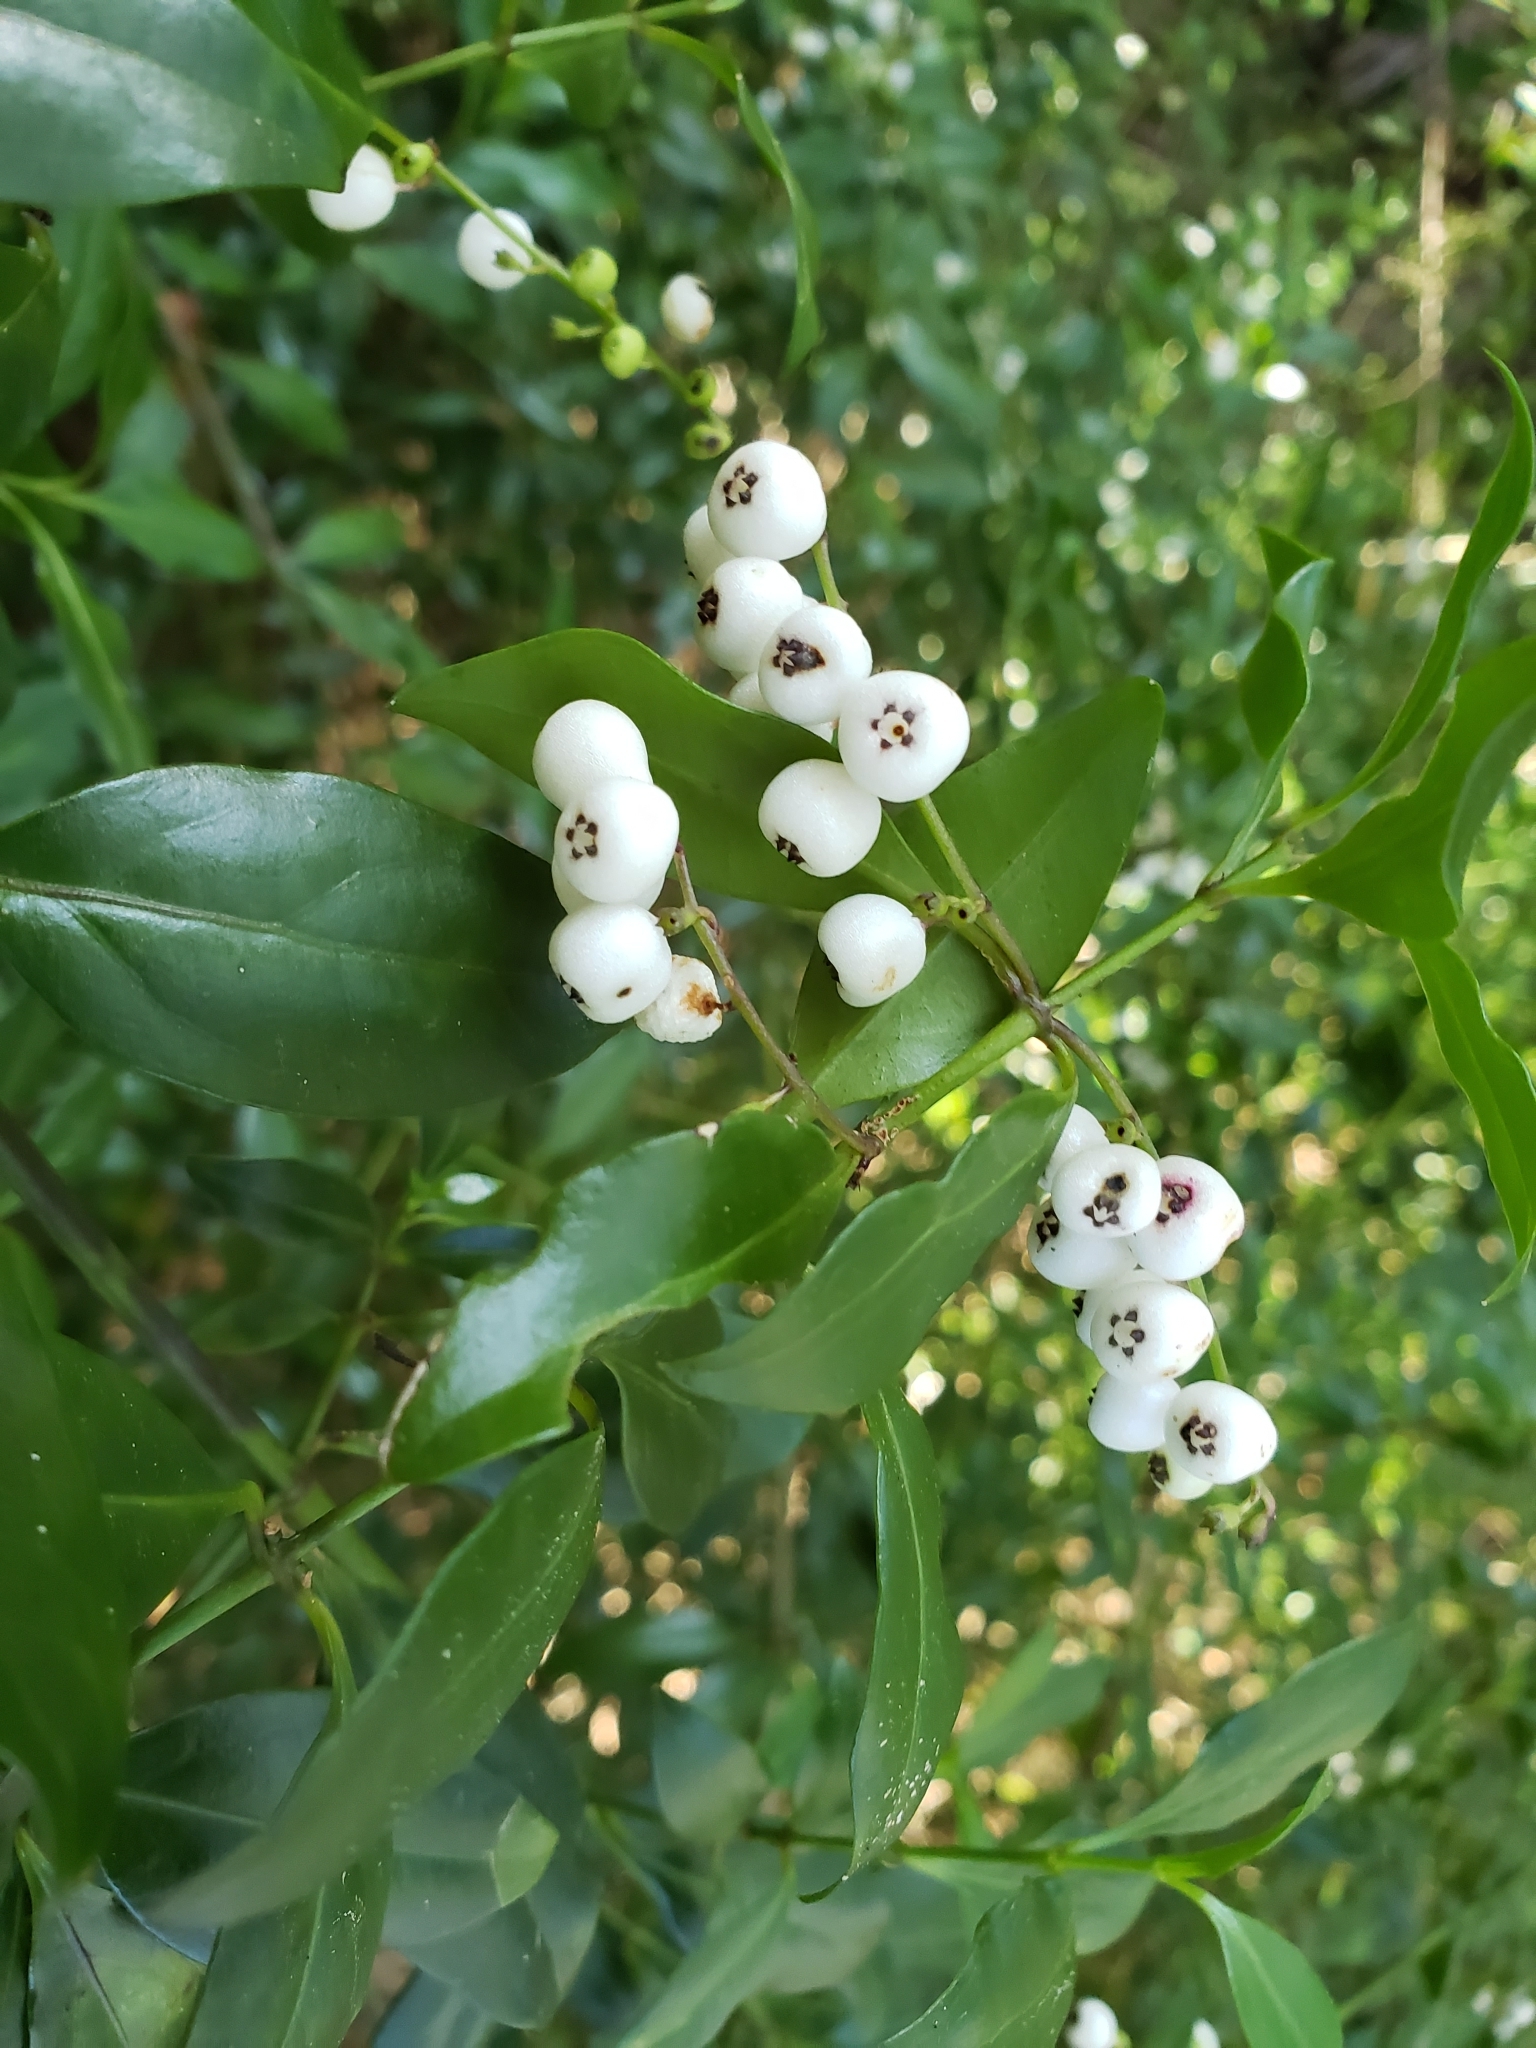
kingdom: Plantae
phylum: Tracheophyta
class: Magnoliopsida
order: Gentianales
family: Rubiaceae
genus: Chiococca
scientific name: Chiococca alba
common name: Snowberry
